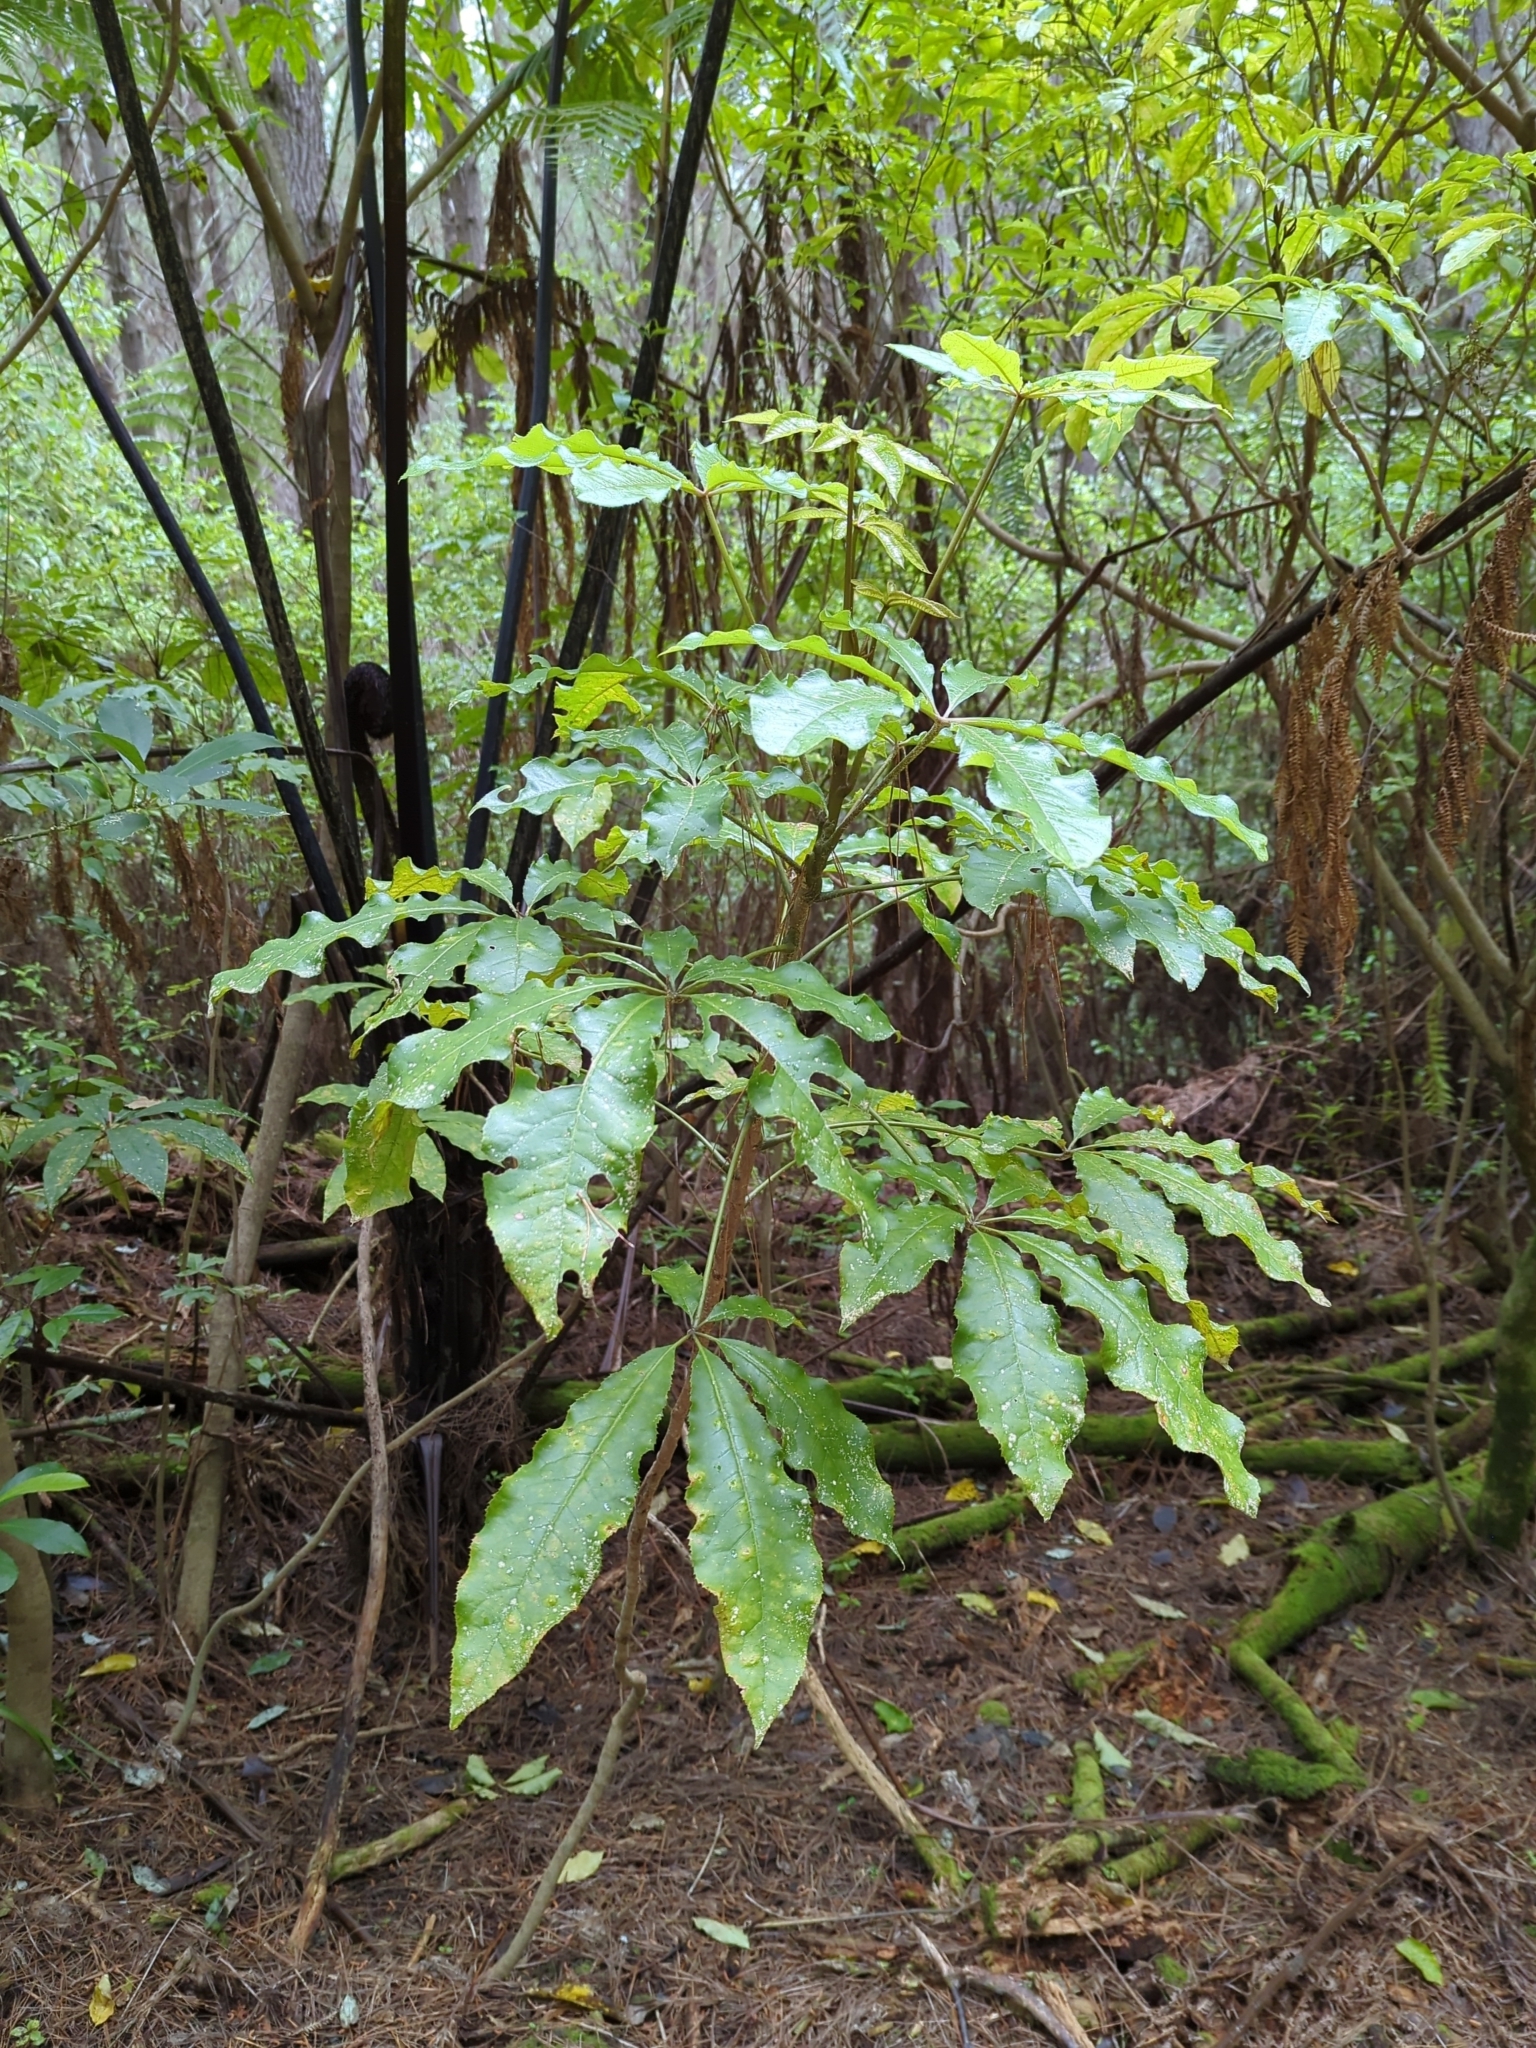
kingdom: Plantae
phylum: Tracheophyta
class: Magnoliopsida
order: Apiales
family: Araliaceae
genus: Schefflera
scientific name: Schefflera digitata
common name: Pate
